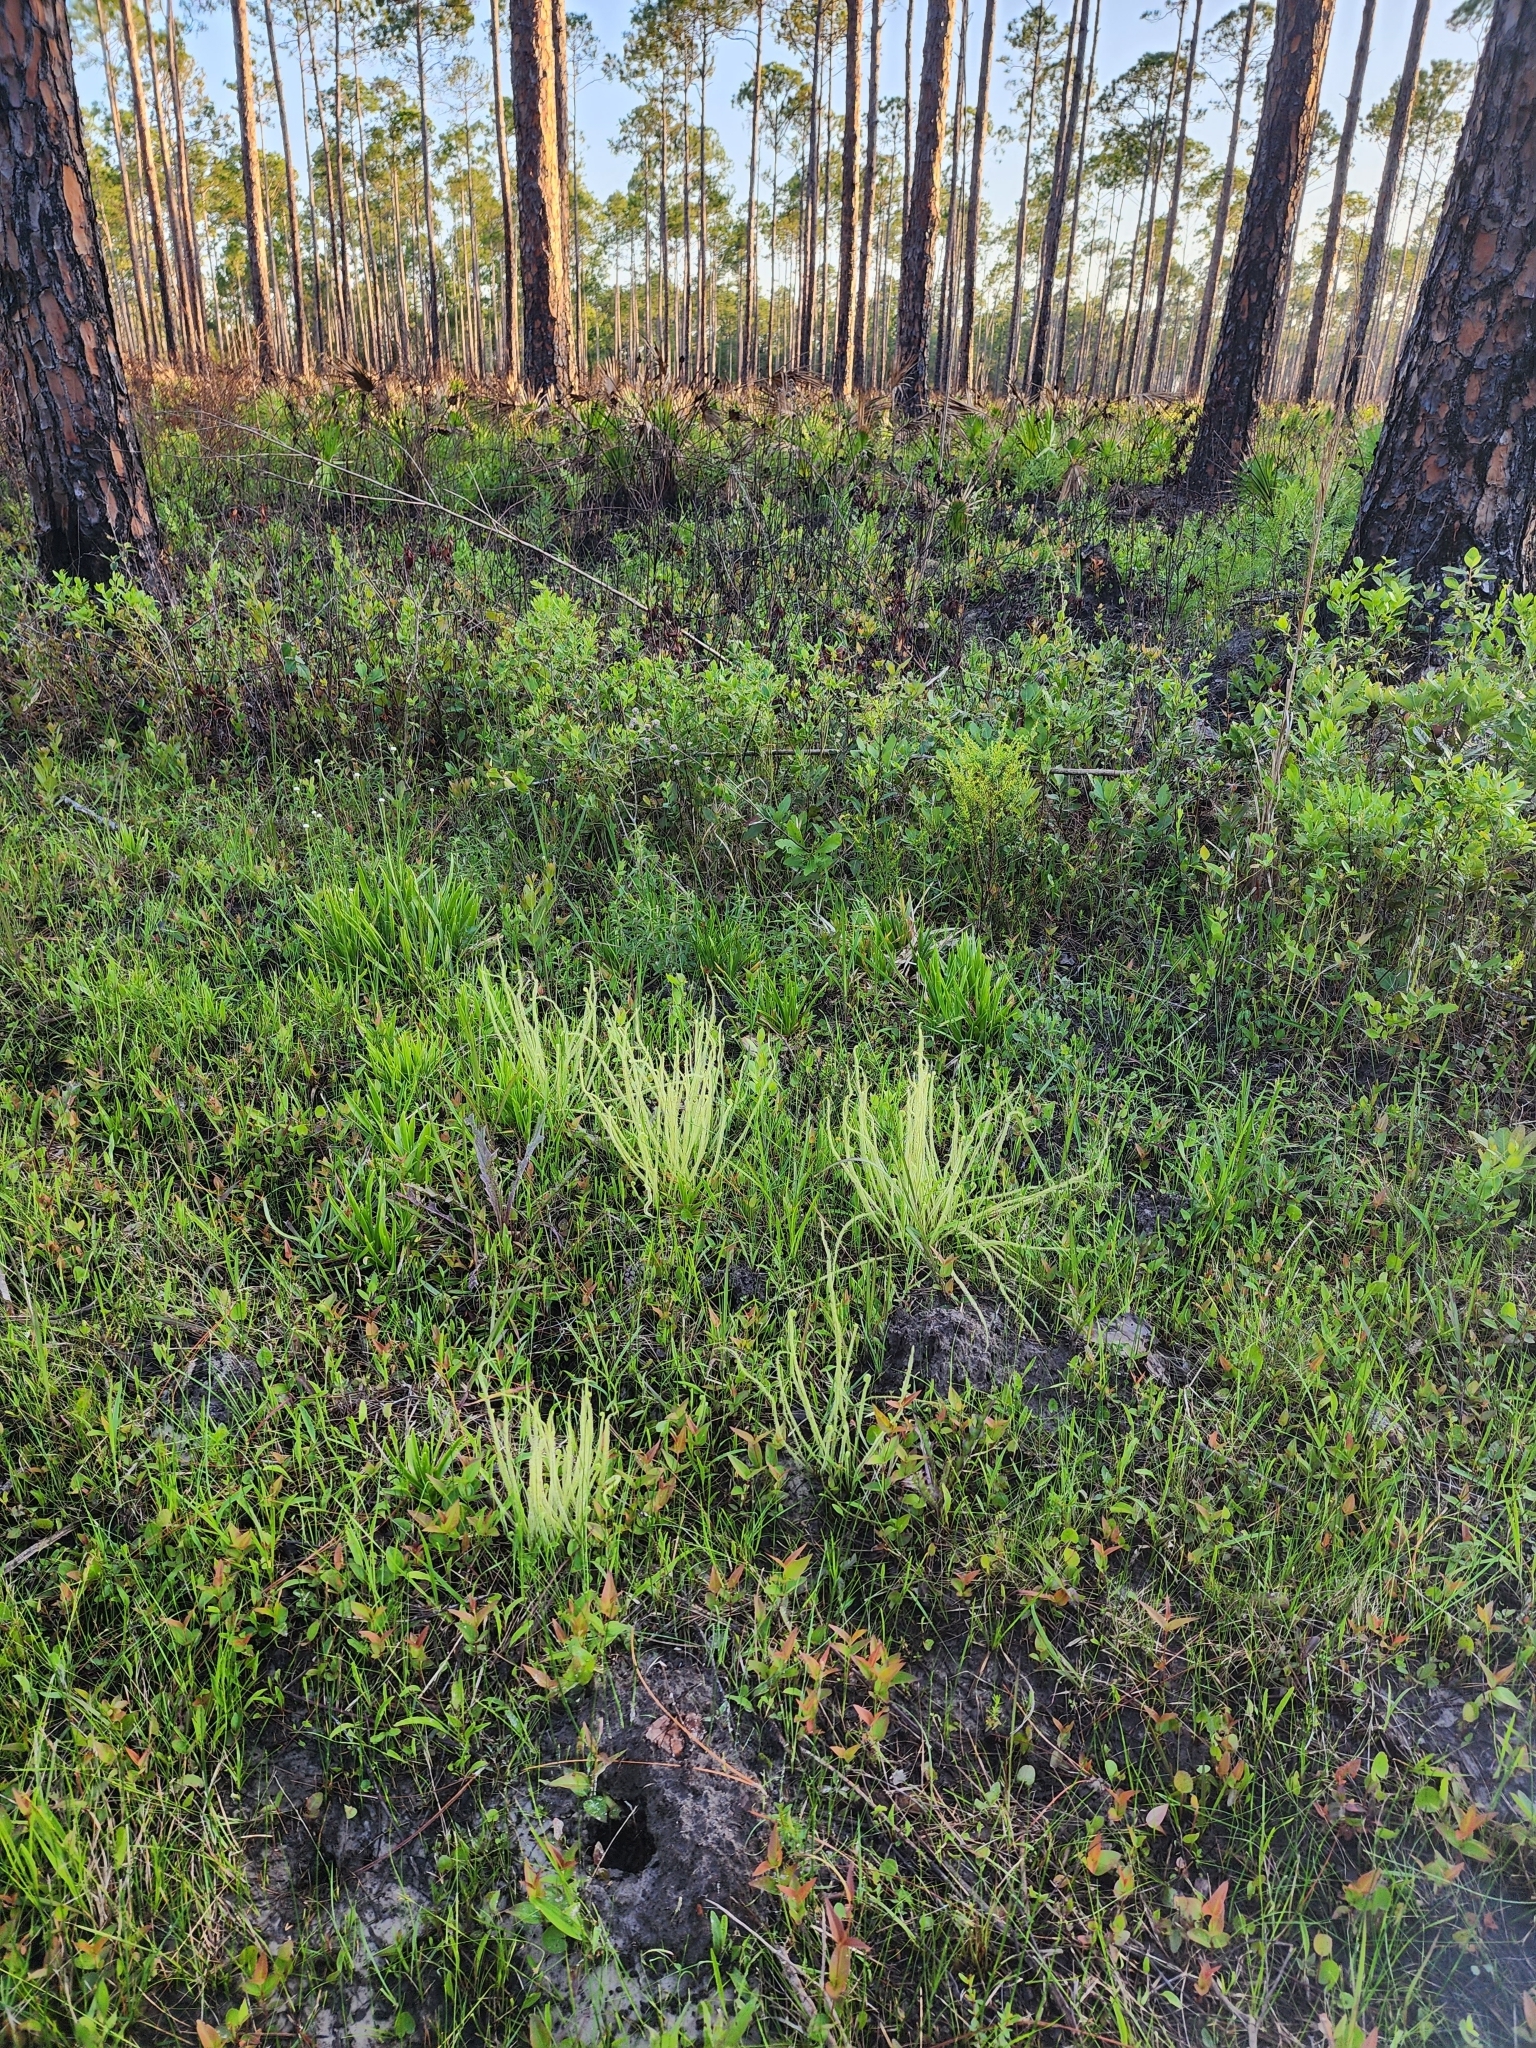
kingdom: Plantae
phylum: Tracheophyta
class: Magnoliopsida
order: Caryophyllales
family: Droseraceae
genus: Drosera
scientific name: Drosera filiformis
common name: Dew-thread
